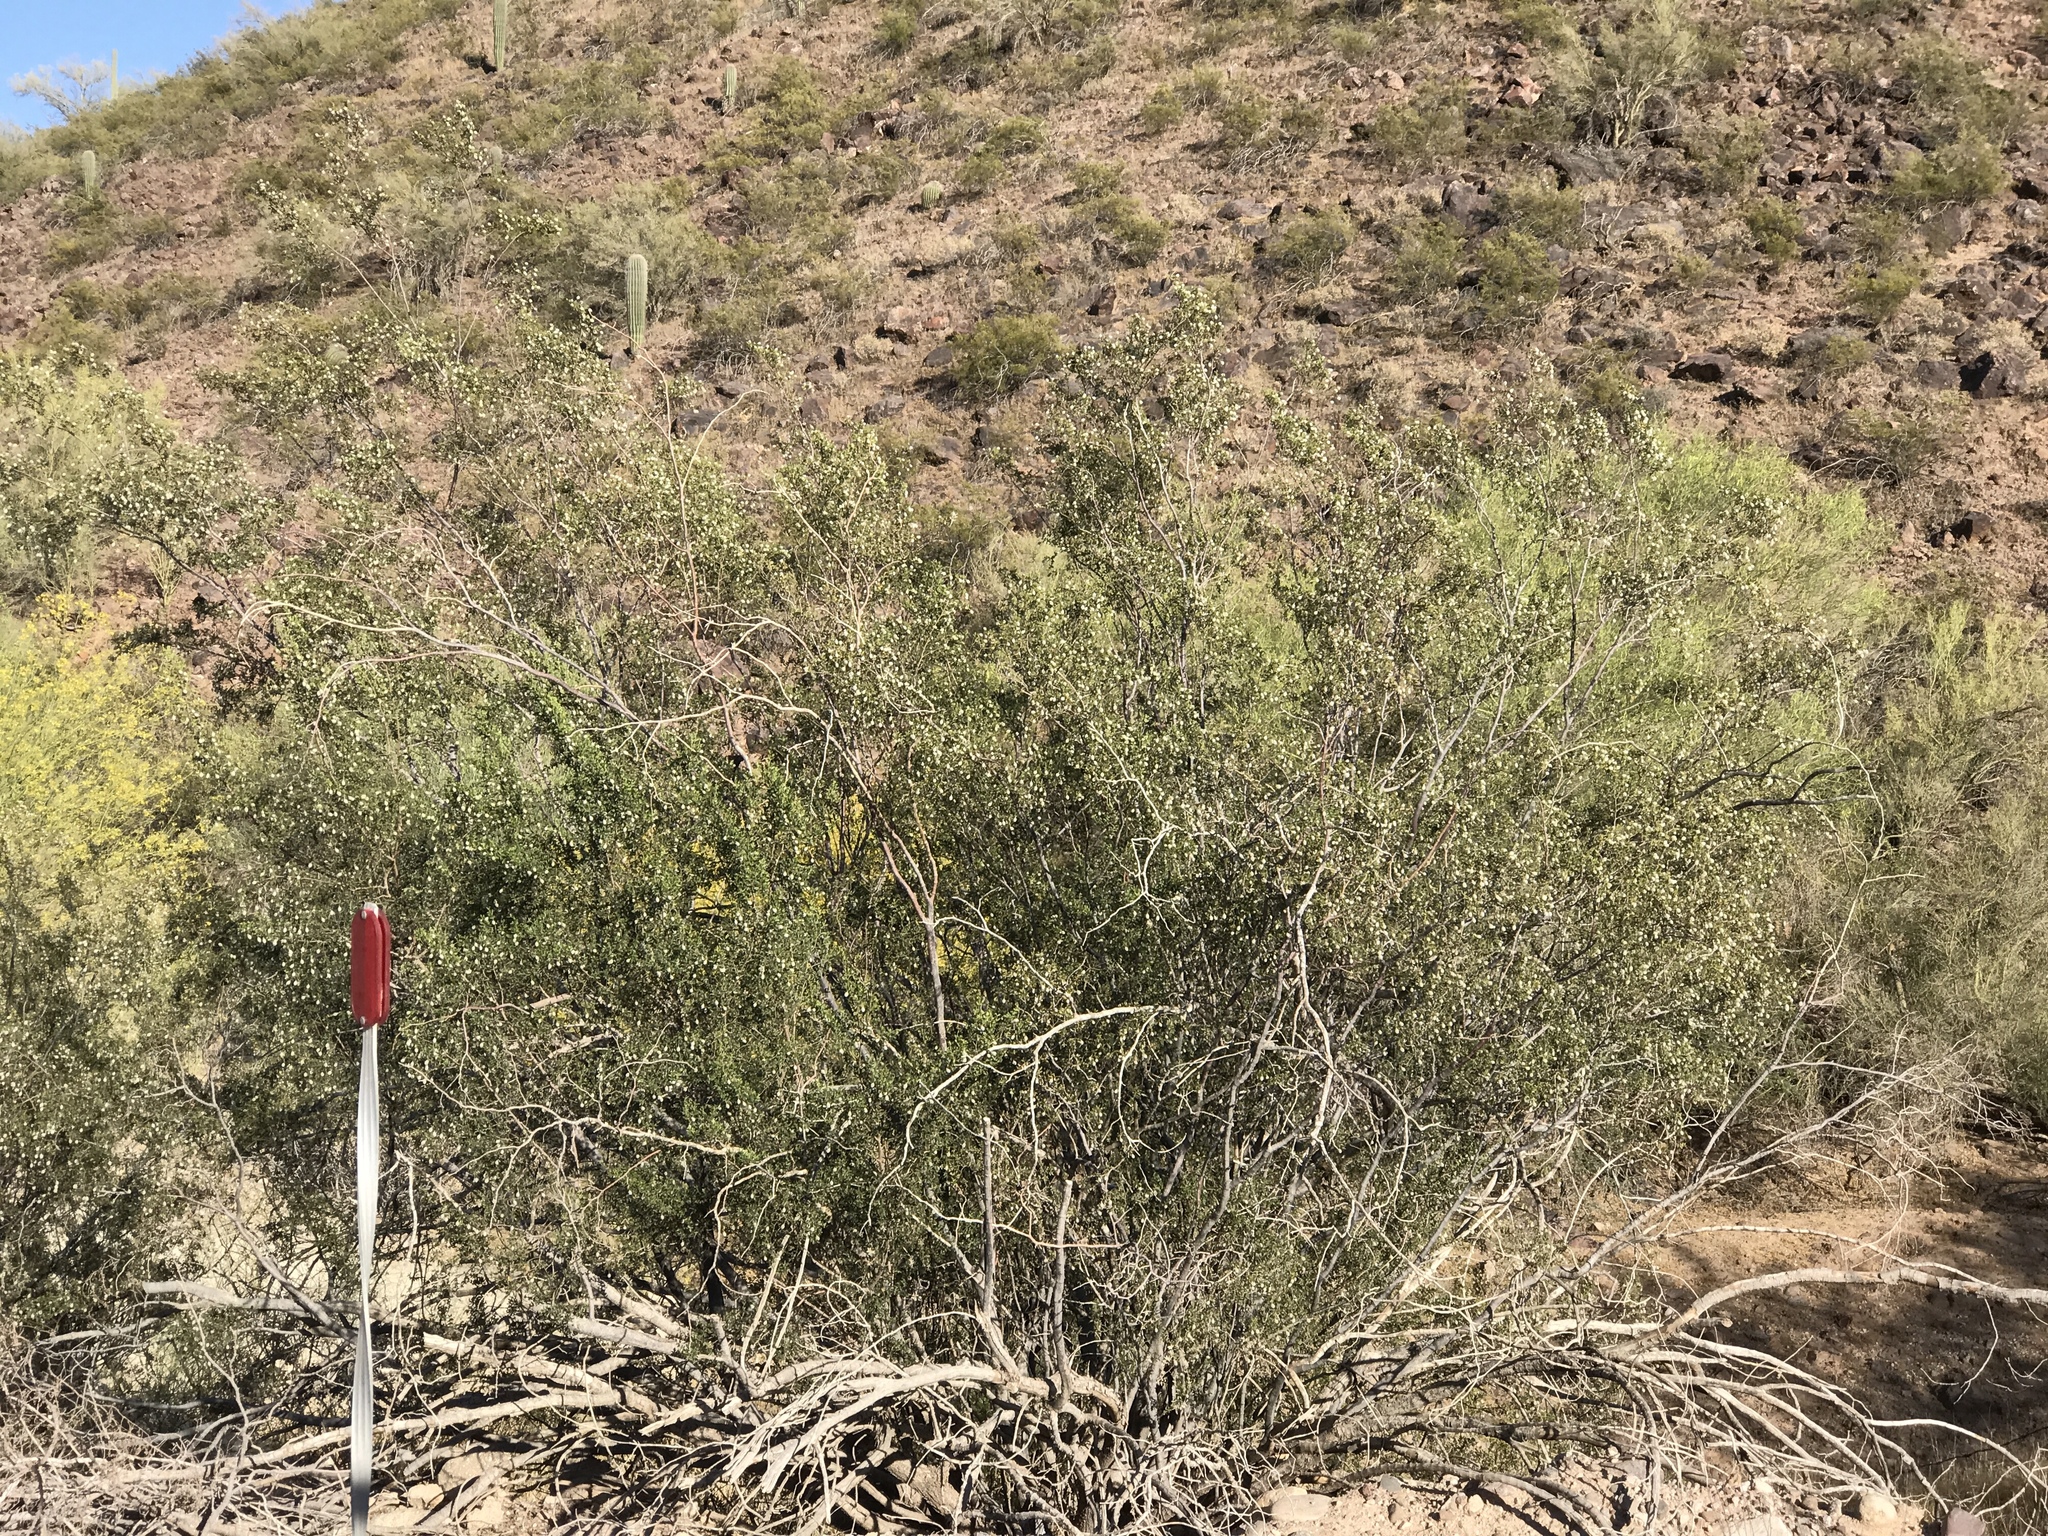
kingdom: Plantae
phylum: Tracheophyta
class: Magnoliopsida
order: Zygophyllales
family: Zygophyllaceae
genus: Larrea
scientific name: Larrea tridentata
